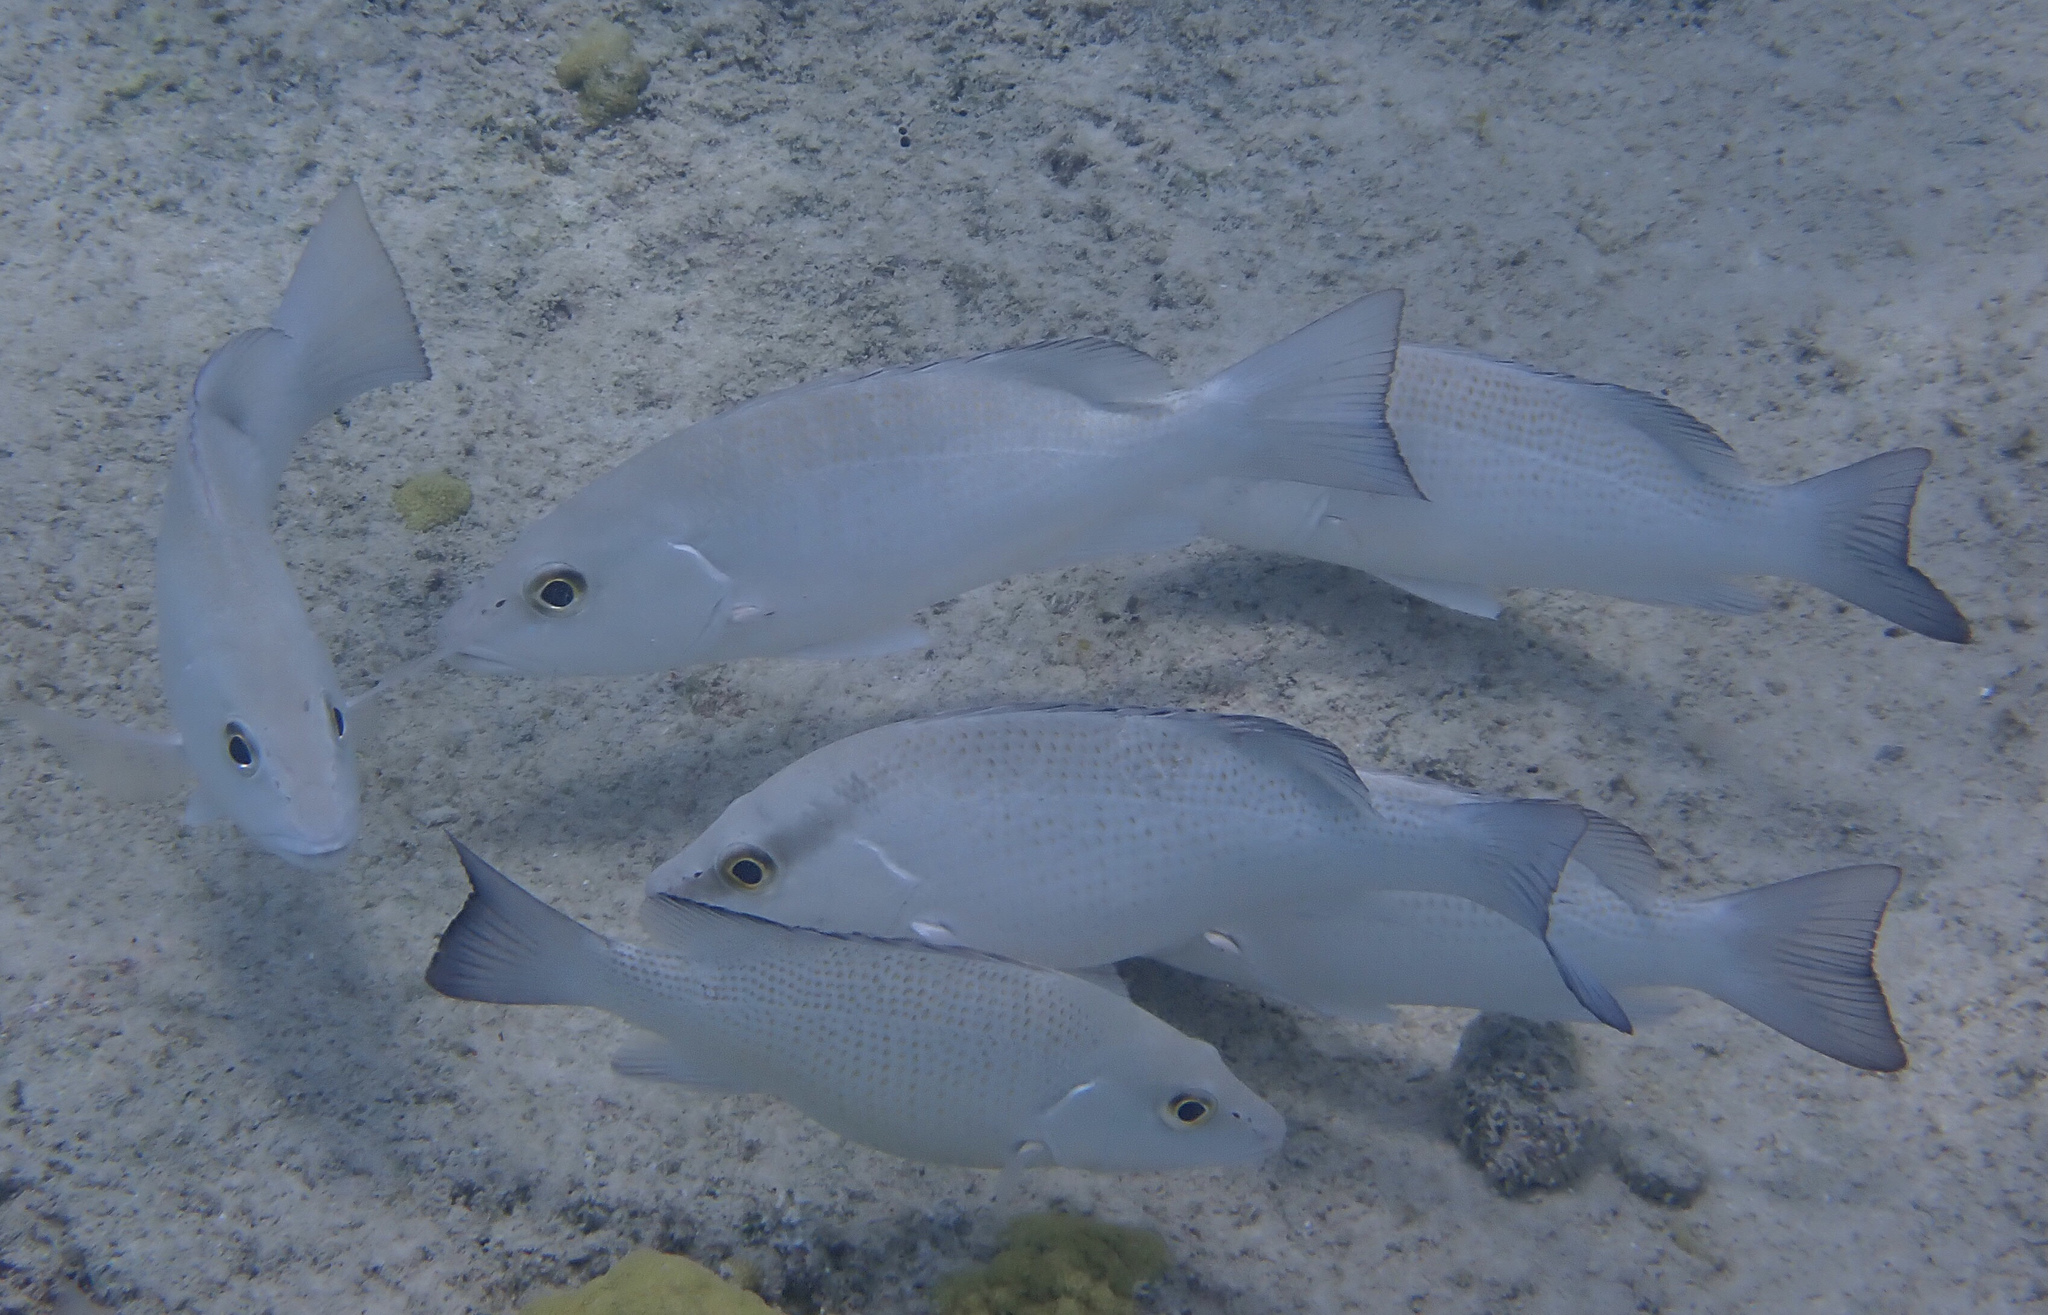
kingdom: Animalia
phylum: Chordata
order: Perciformes
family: Lutjanidae
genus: Lutjanus
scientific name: Lutjanus griseus
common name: Gray snapper
